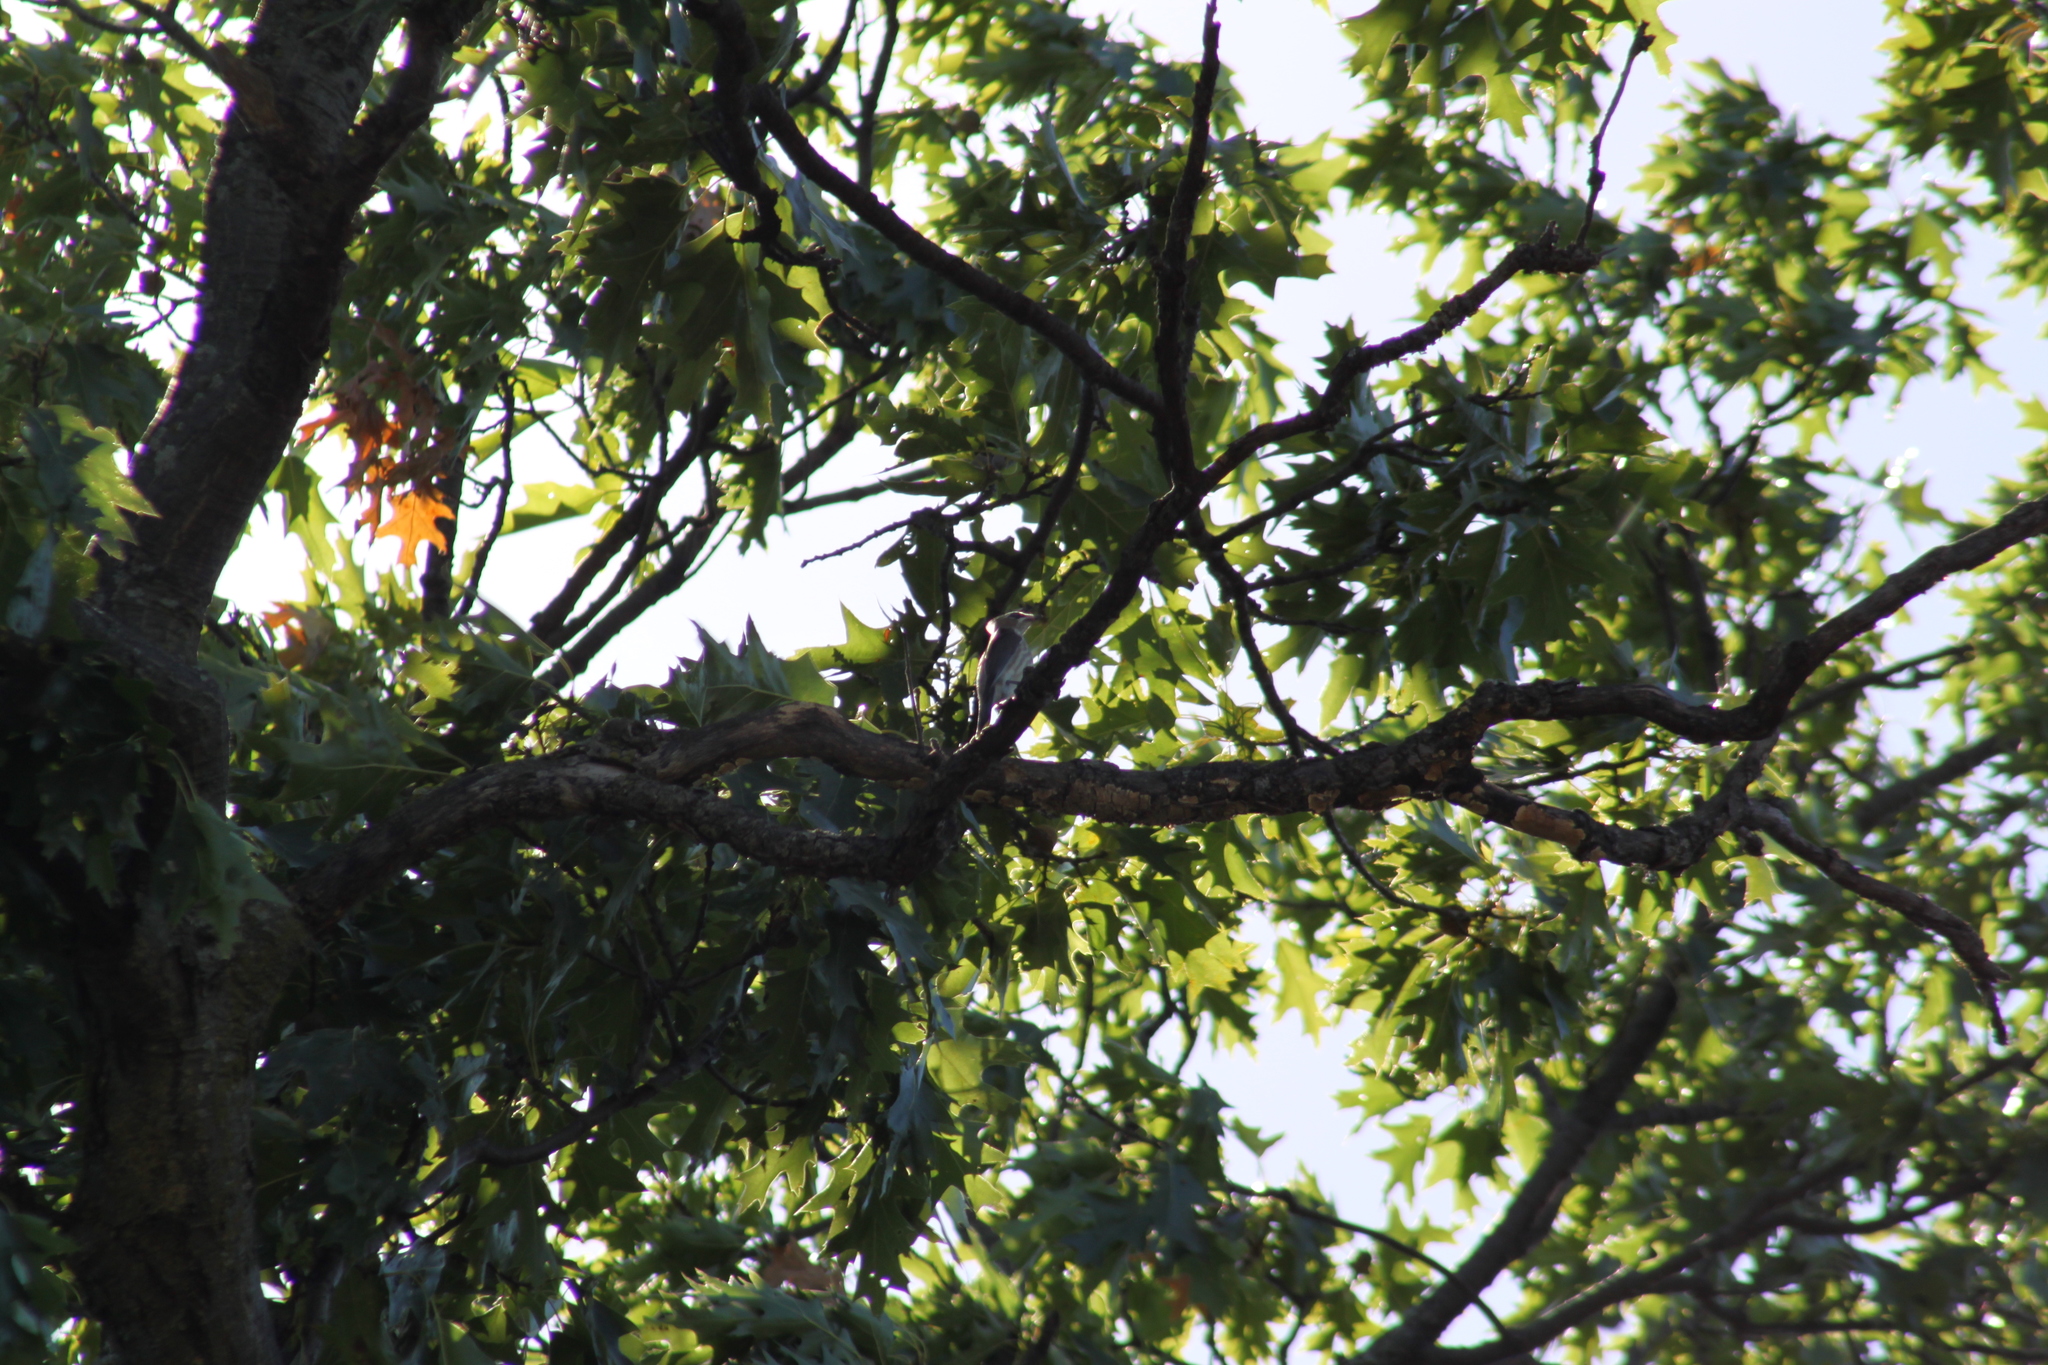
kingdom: Animalia
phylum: Chordata
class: Aves
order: Passeriformes
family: Bombycillidae
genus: Bombycilla
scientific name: Bombycilla cedrorum
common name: Cedar waxwing
